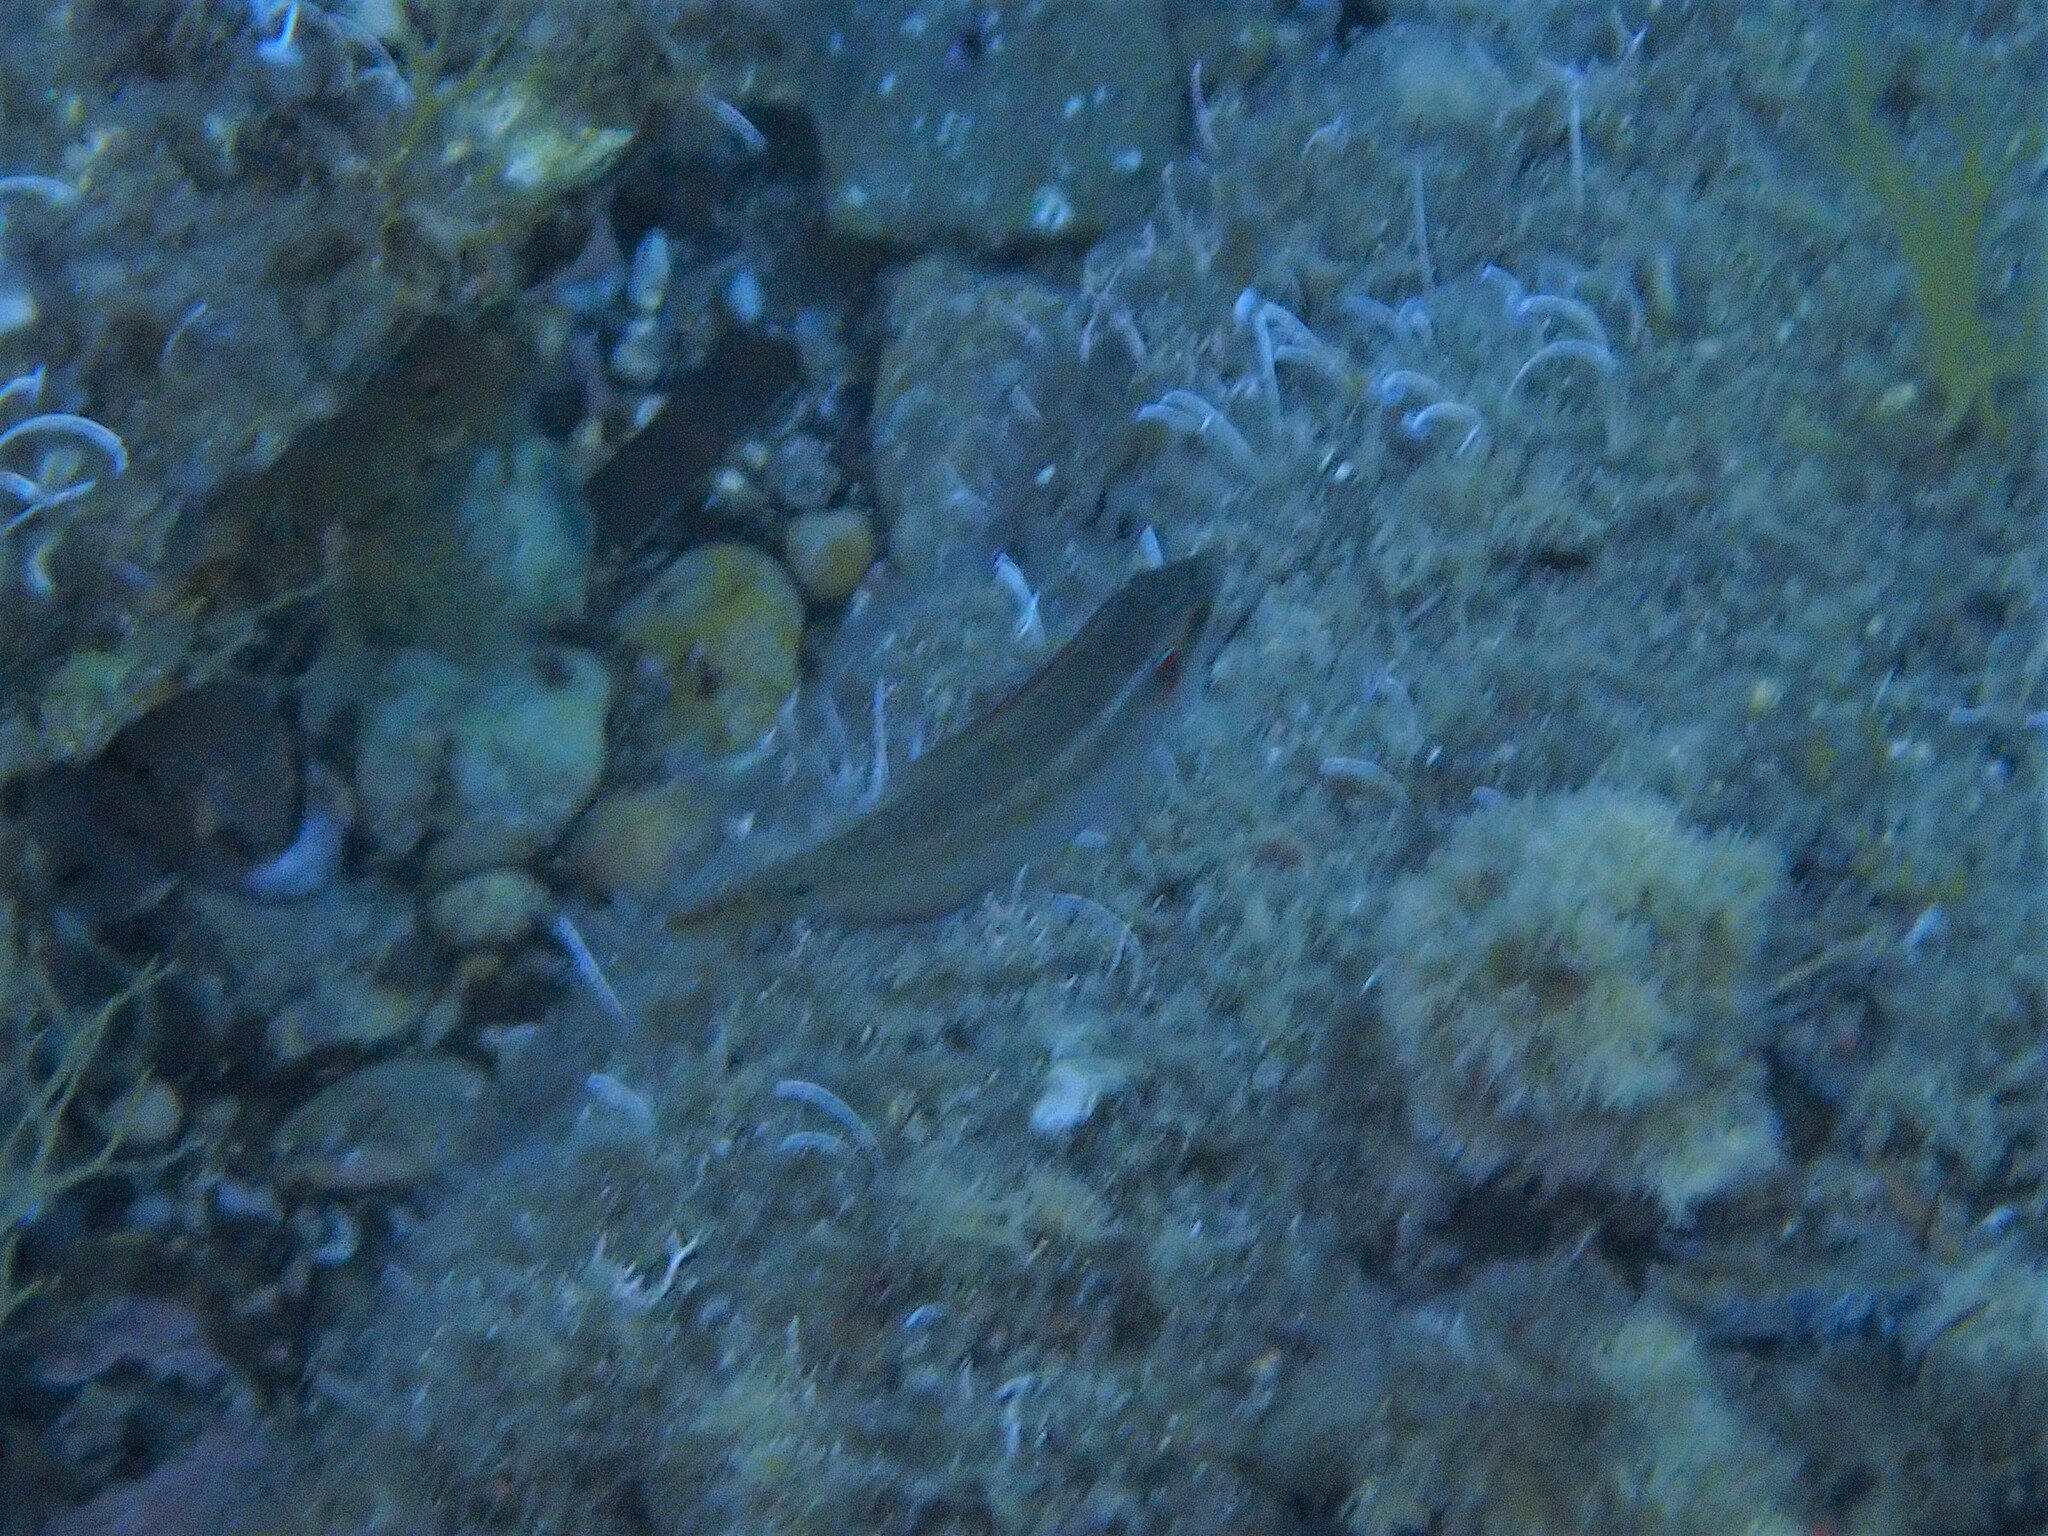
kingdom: Animalia
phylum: Chordata
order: Perciformes
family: Labridae
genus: Symphodus
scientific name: Symphodus ocellatus
